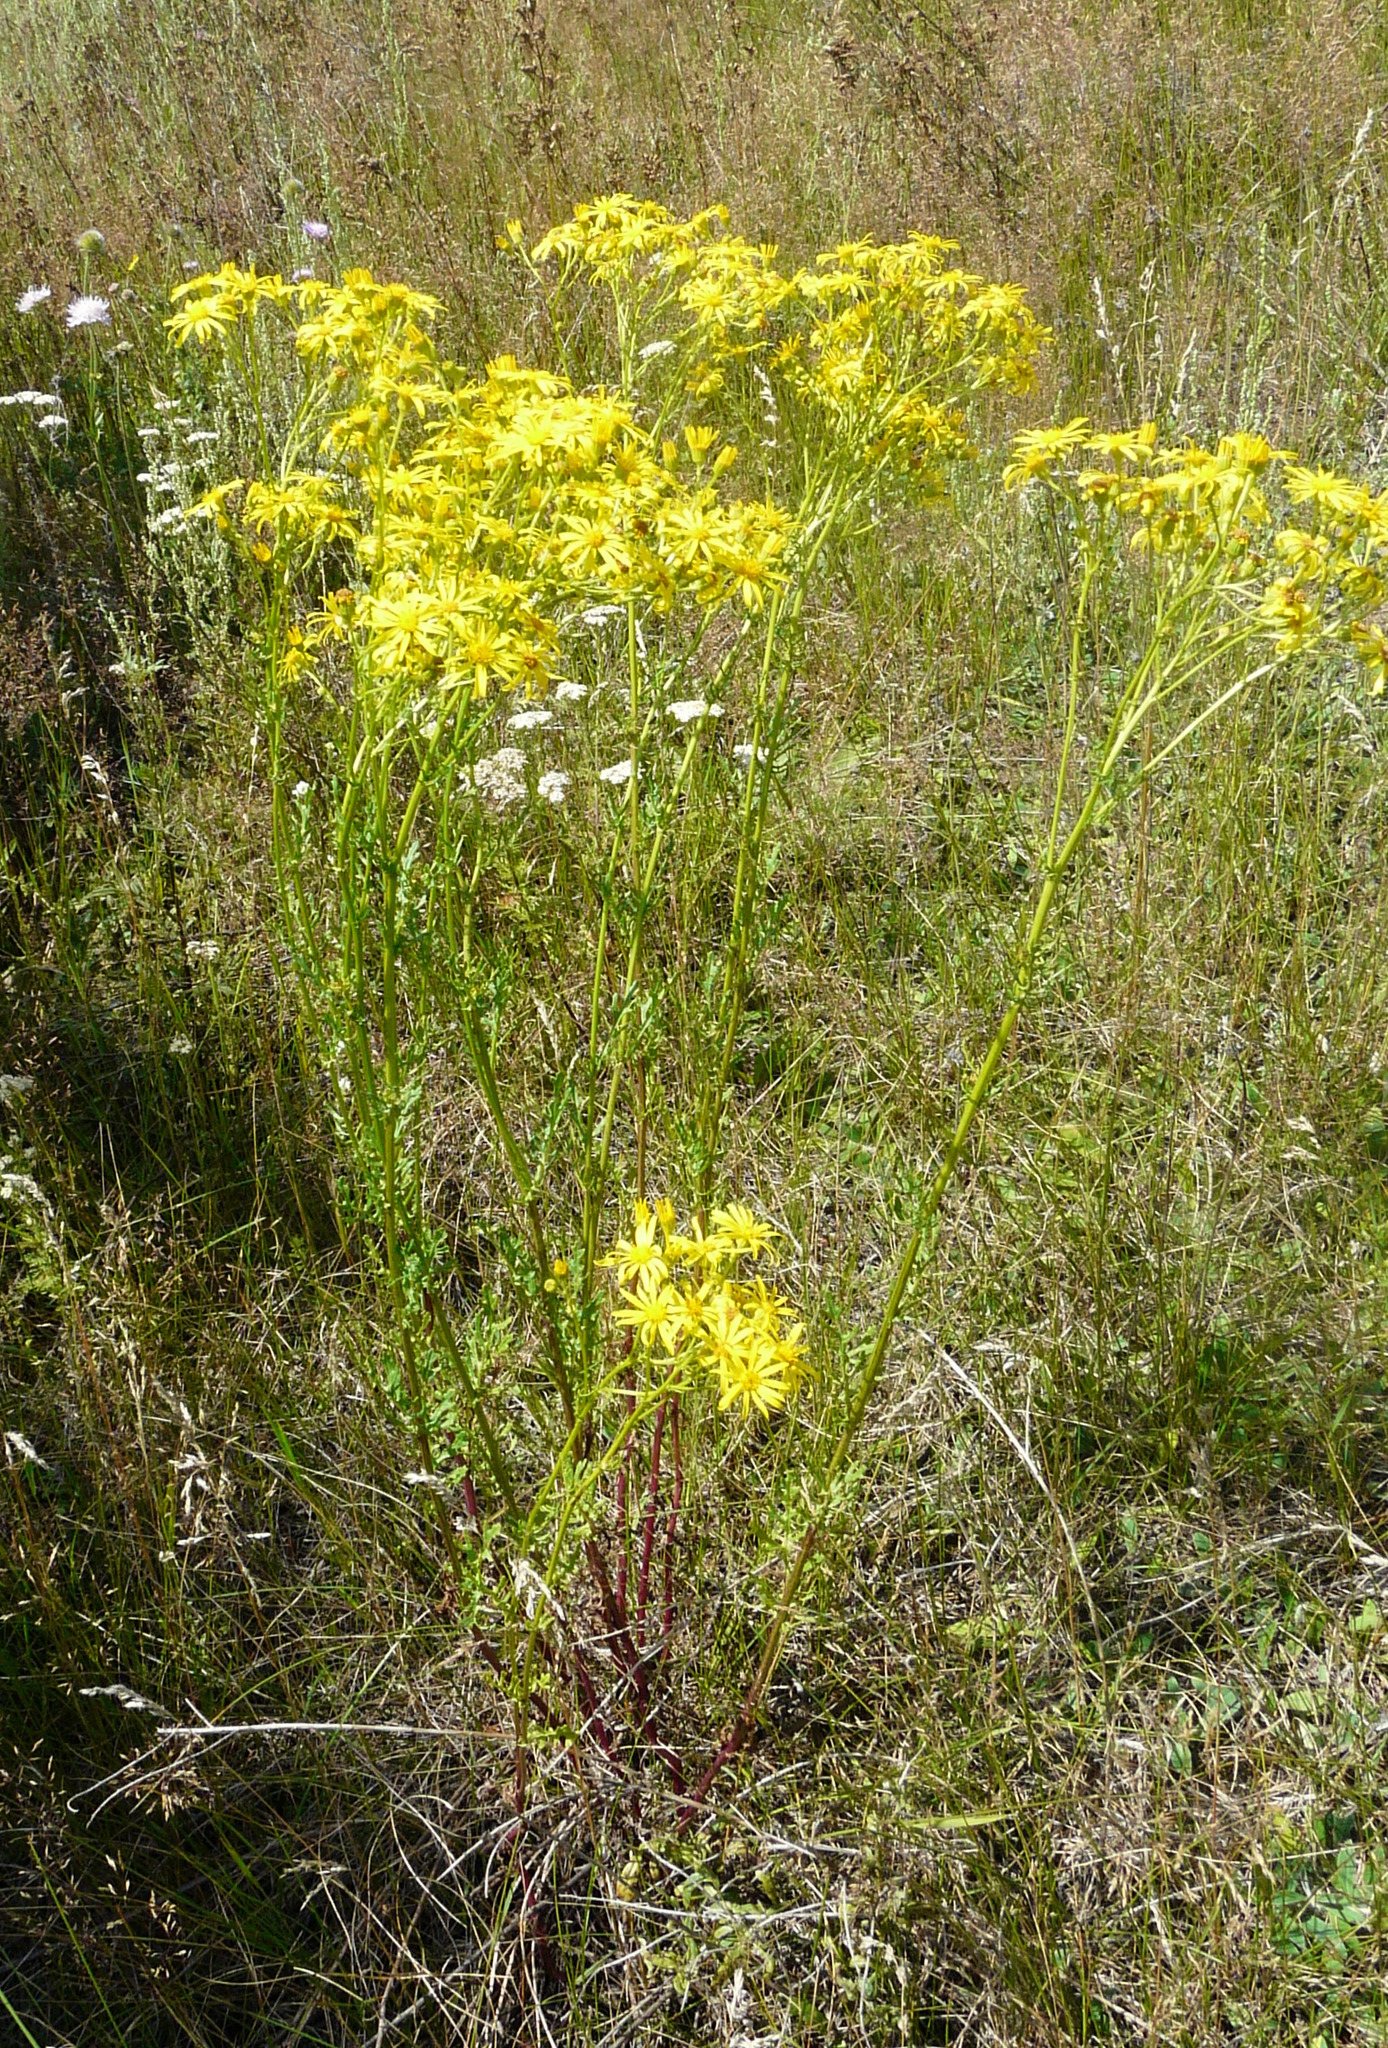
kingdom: Plantae
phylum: Tracheophyta
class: Magnoliopsida
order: Asterales
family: Asteraceae
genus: Jacobaea
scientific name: Jacobaea vulgaris
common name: Stinking willie
